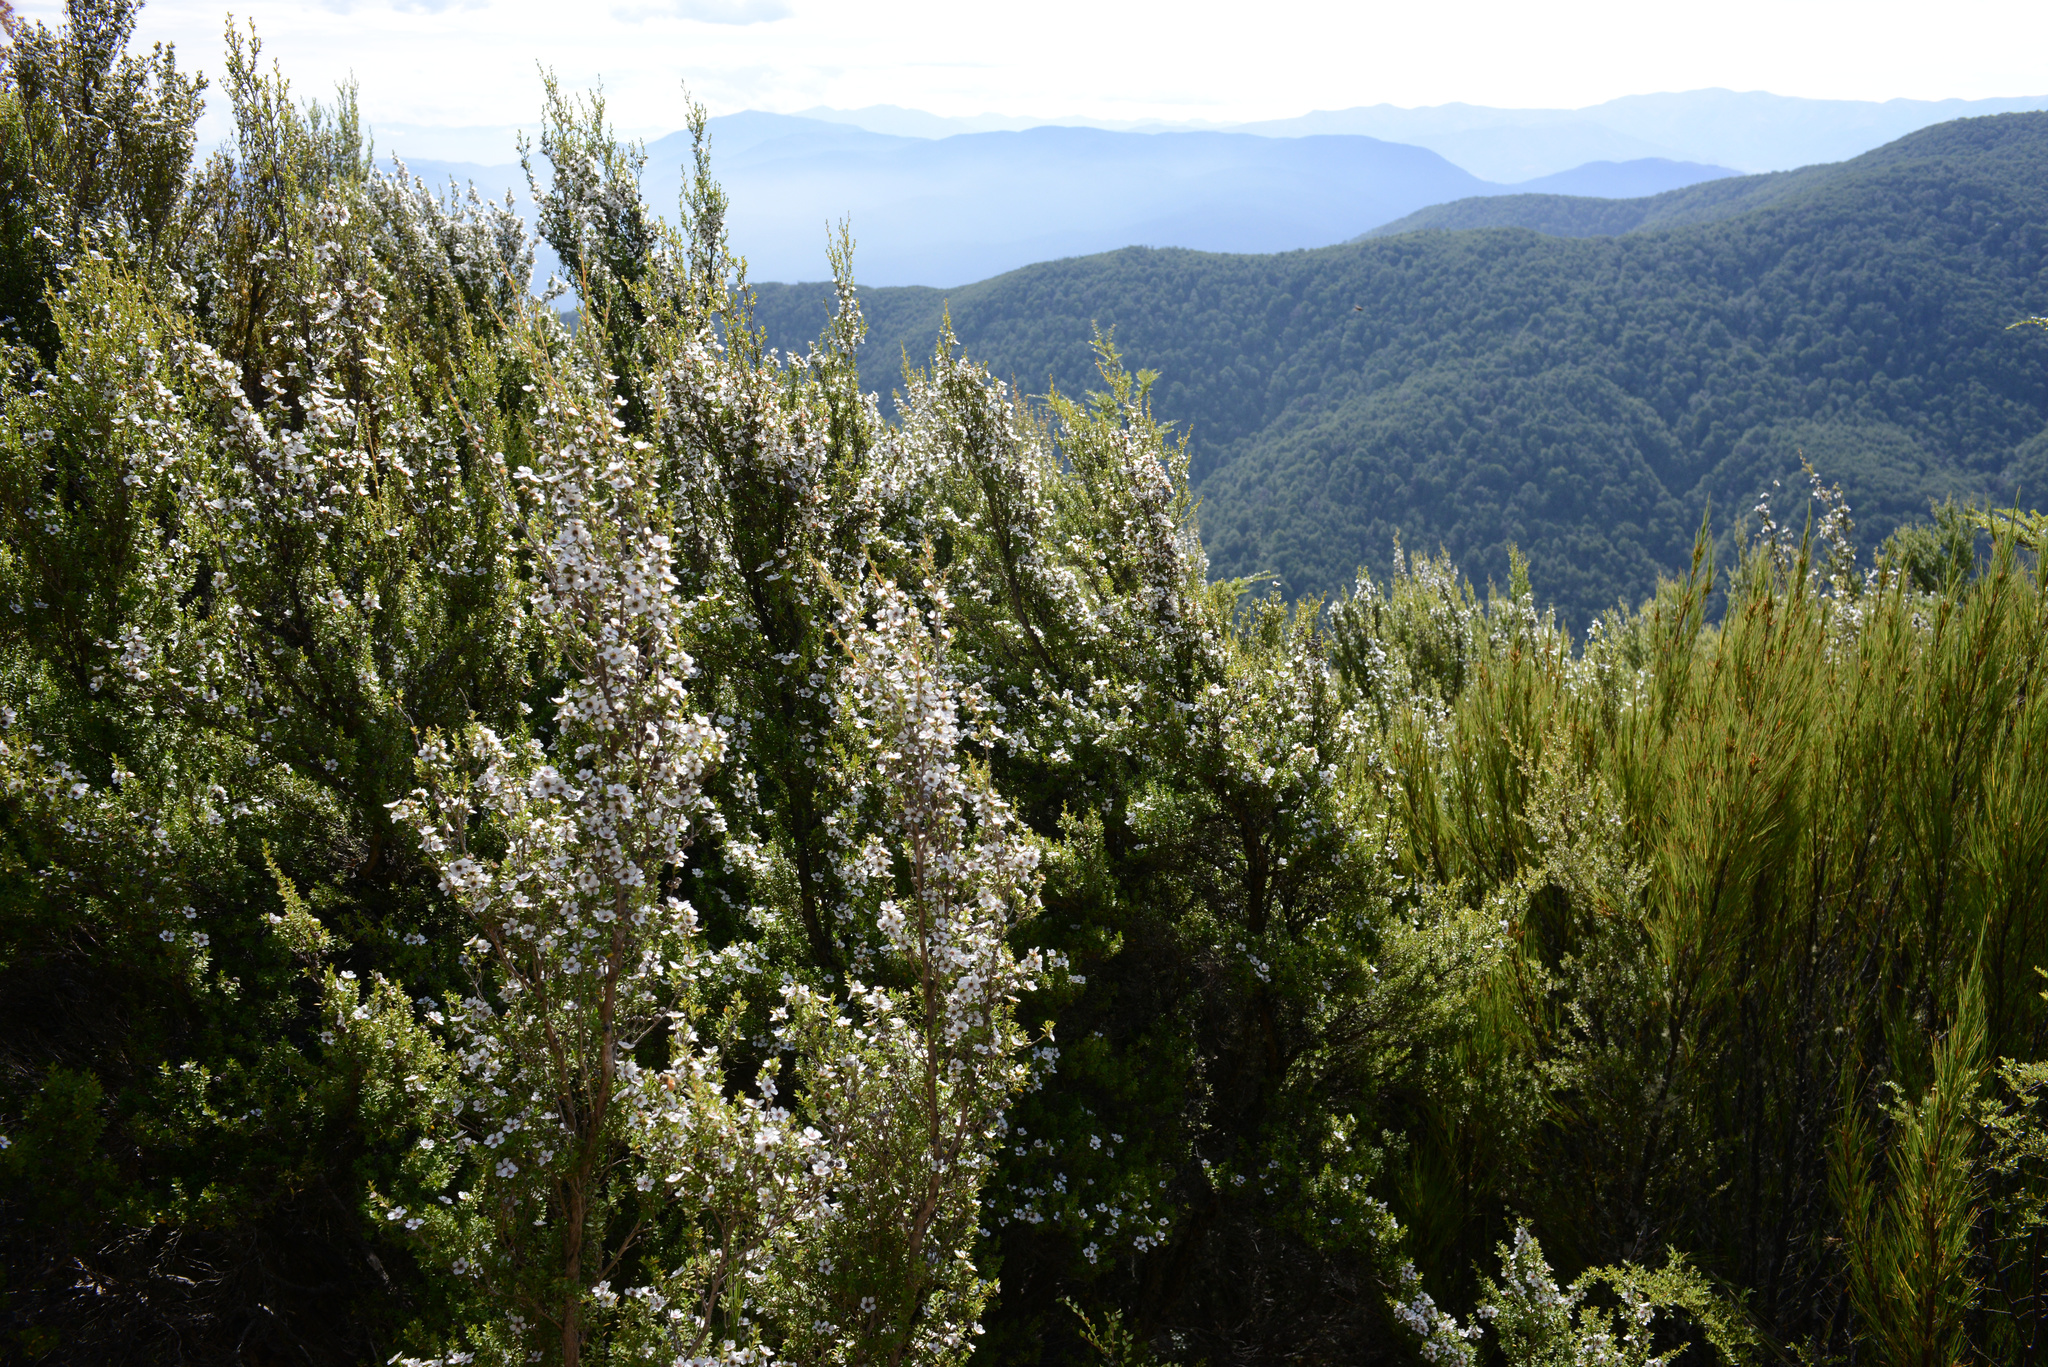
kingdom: Plantae
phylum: Tracheophyta
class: Magnoliopsida
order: Myrtales
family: Myrtaceae
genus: Leptospermum
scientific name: Leptospermum scoparium
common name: Broom tea-tree
